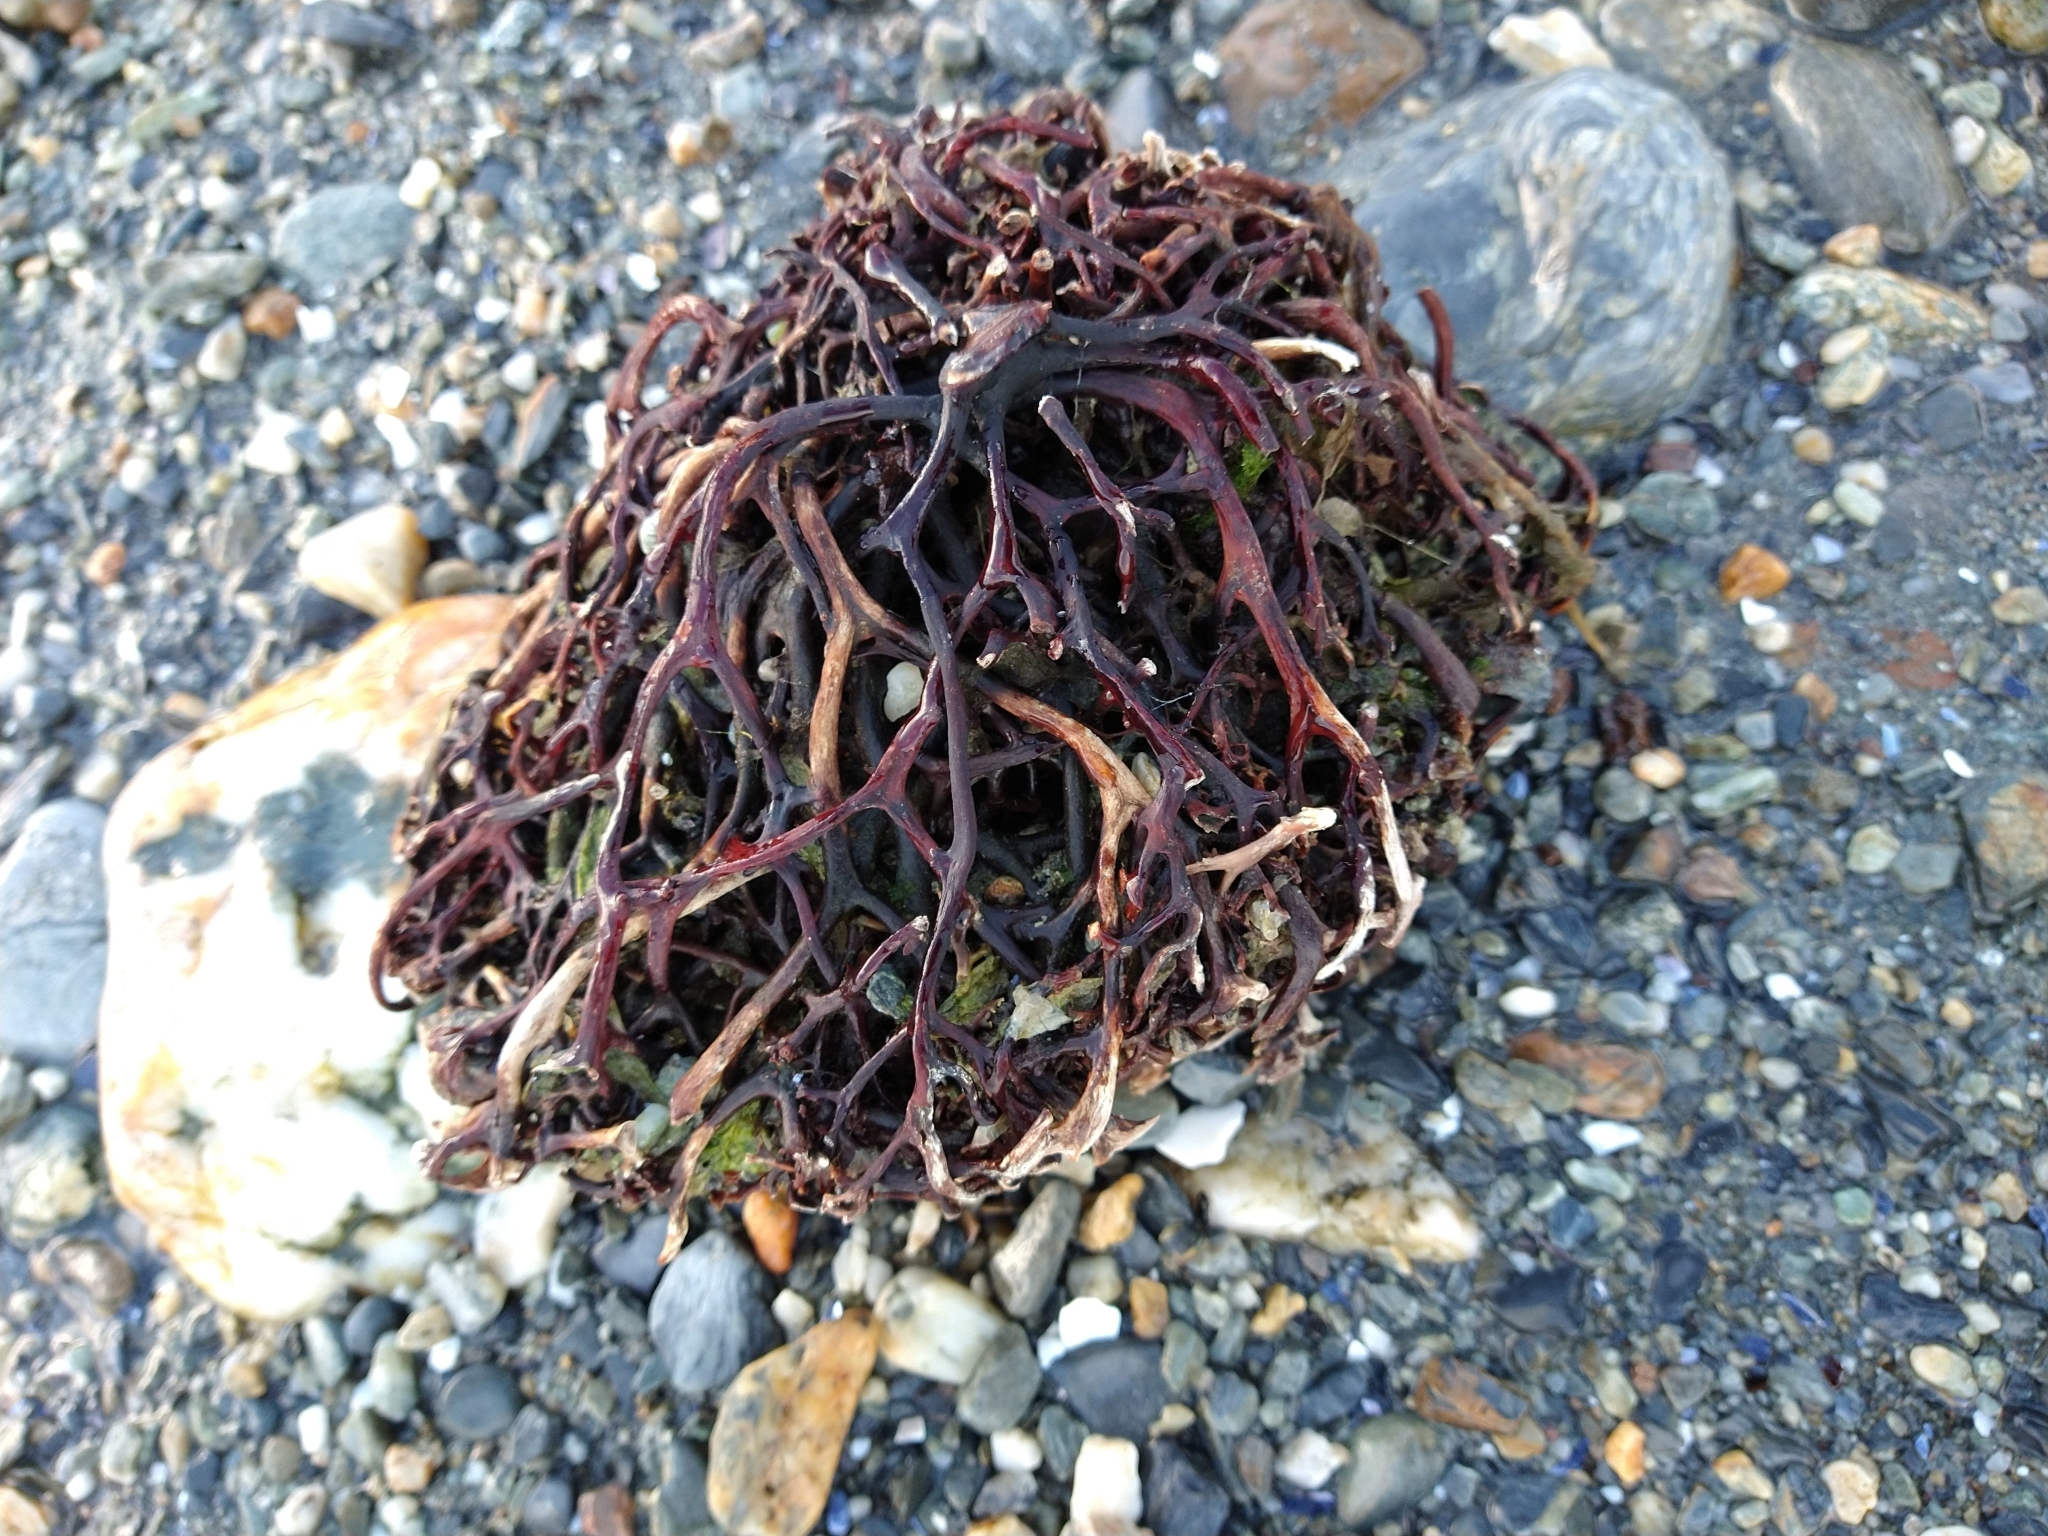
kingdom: Chromista
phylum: Ochrophyta
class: Phaeophyceae
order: Laminariales
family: Laminariaceae
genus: Macrocystis
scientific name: Macrocystis pyrifera
